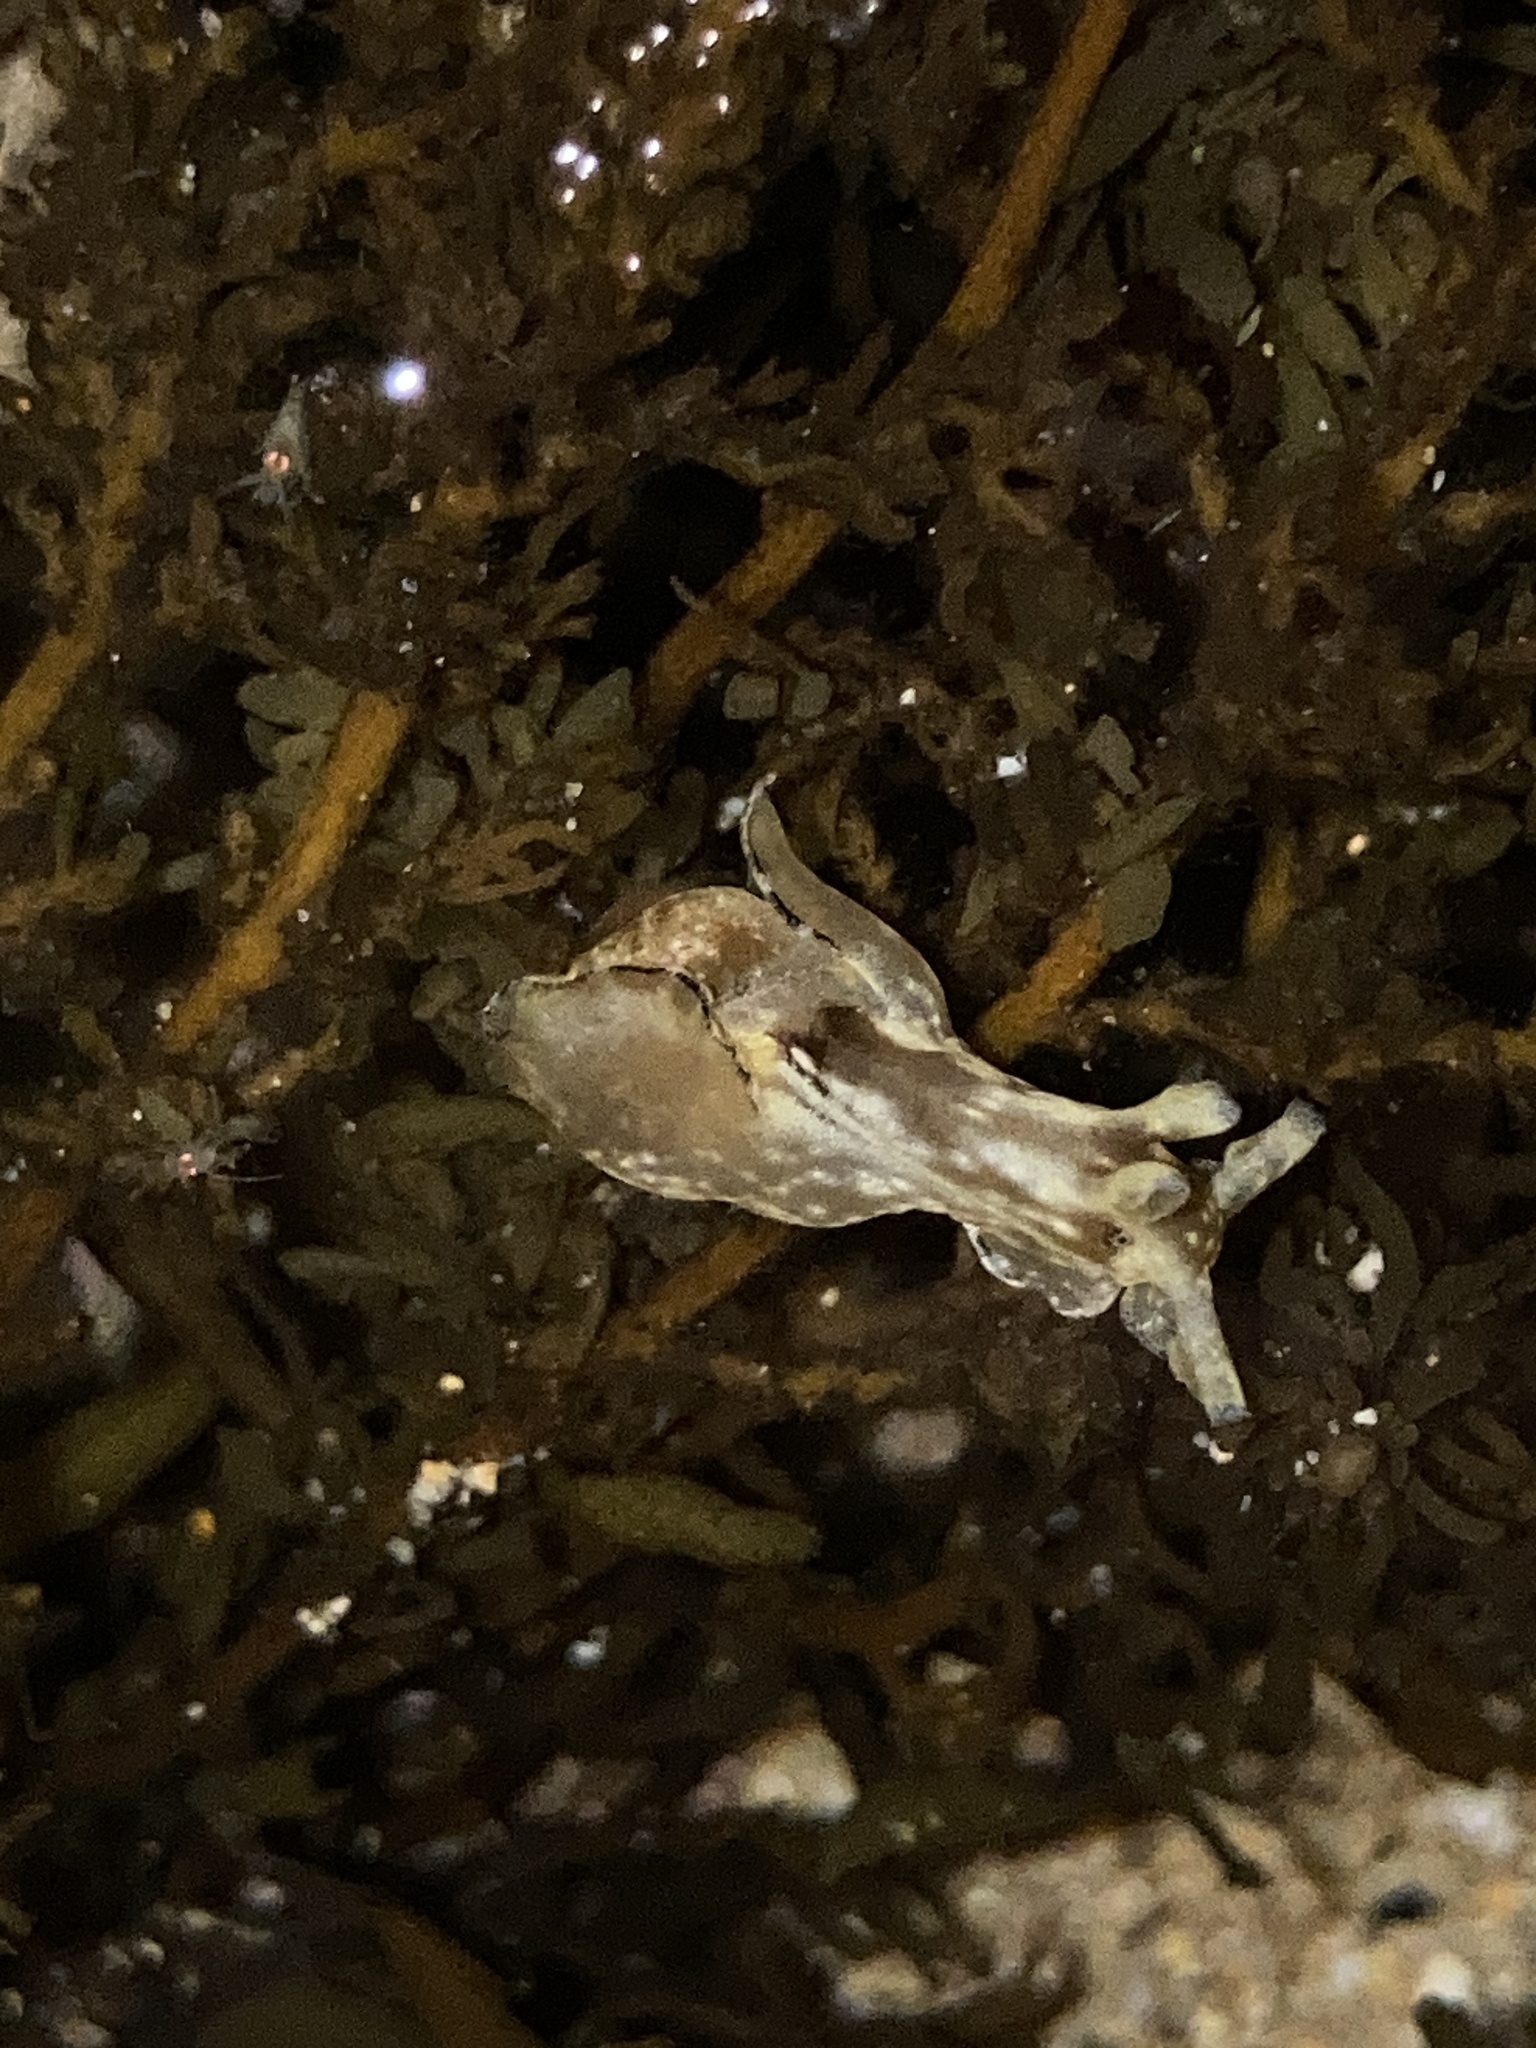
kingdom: Animalia
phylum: Mollusca
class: Gastropoda
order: Aplysiida
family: Aplysiidae
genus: Aplysia
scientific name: Aplysia concava
